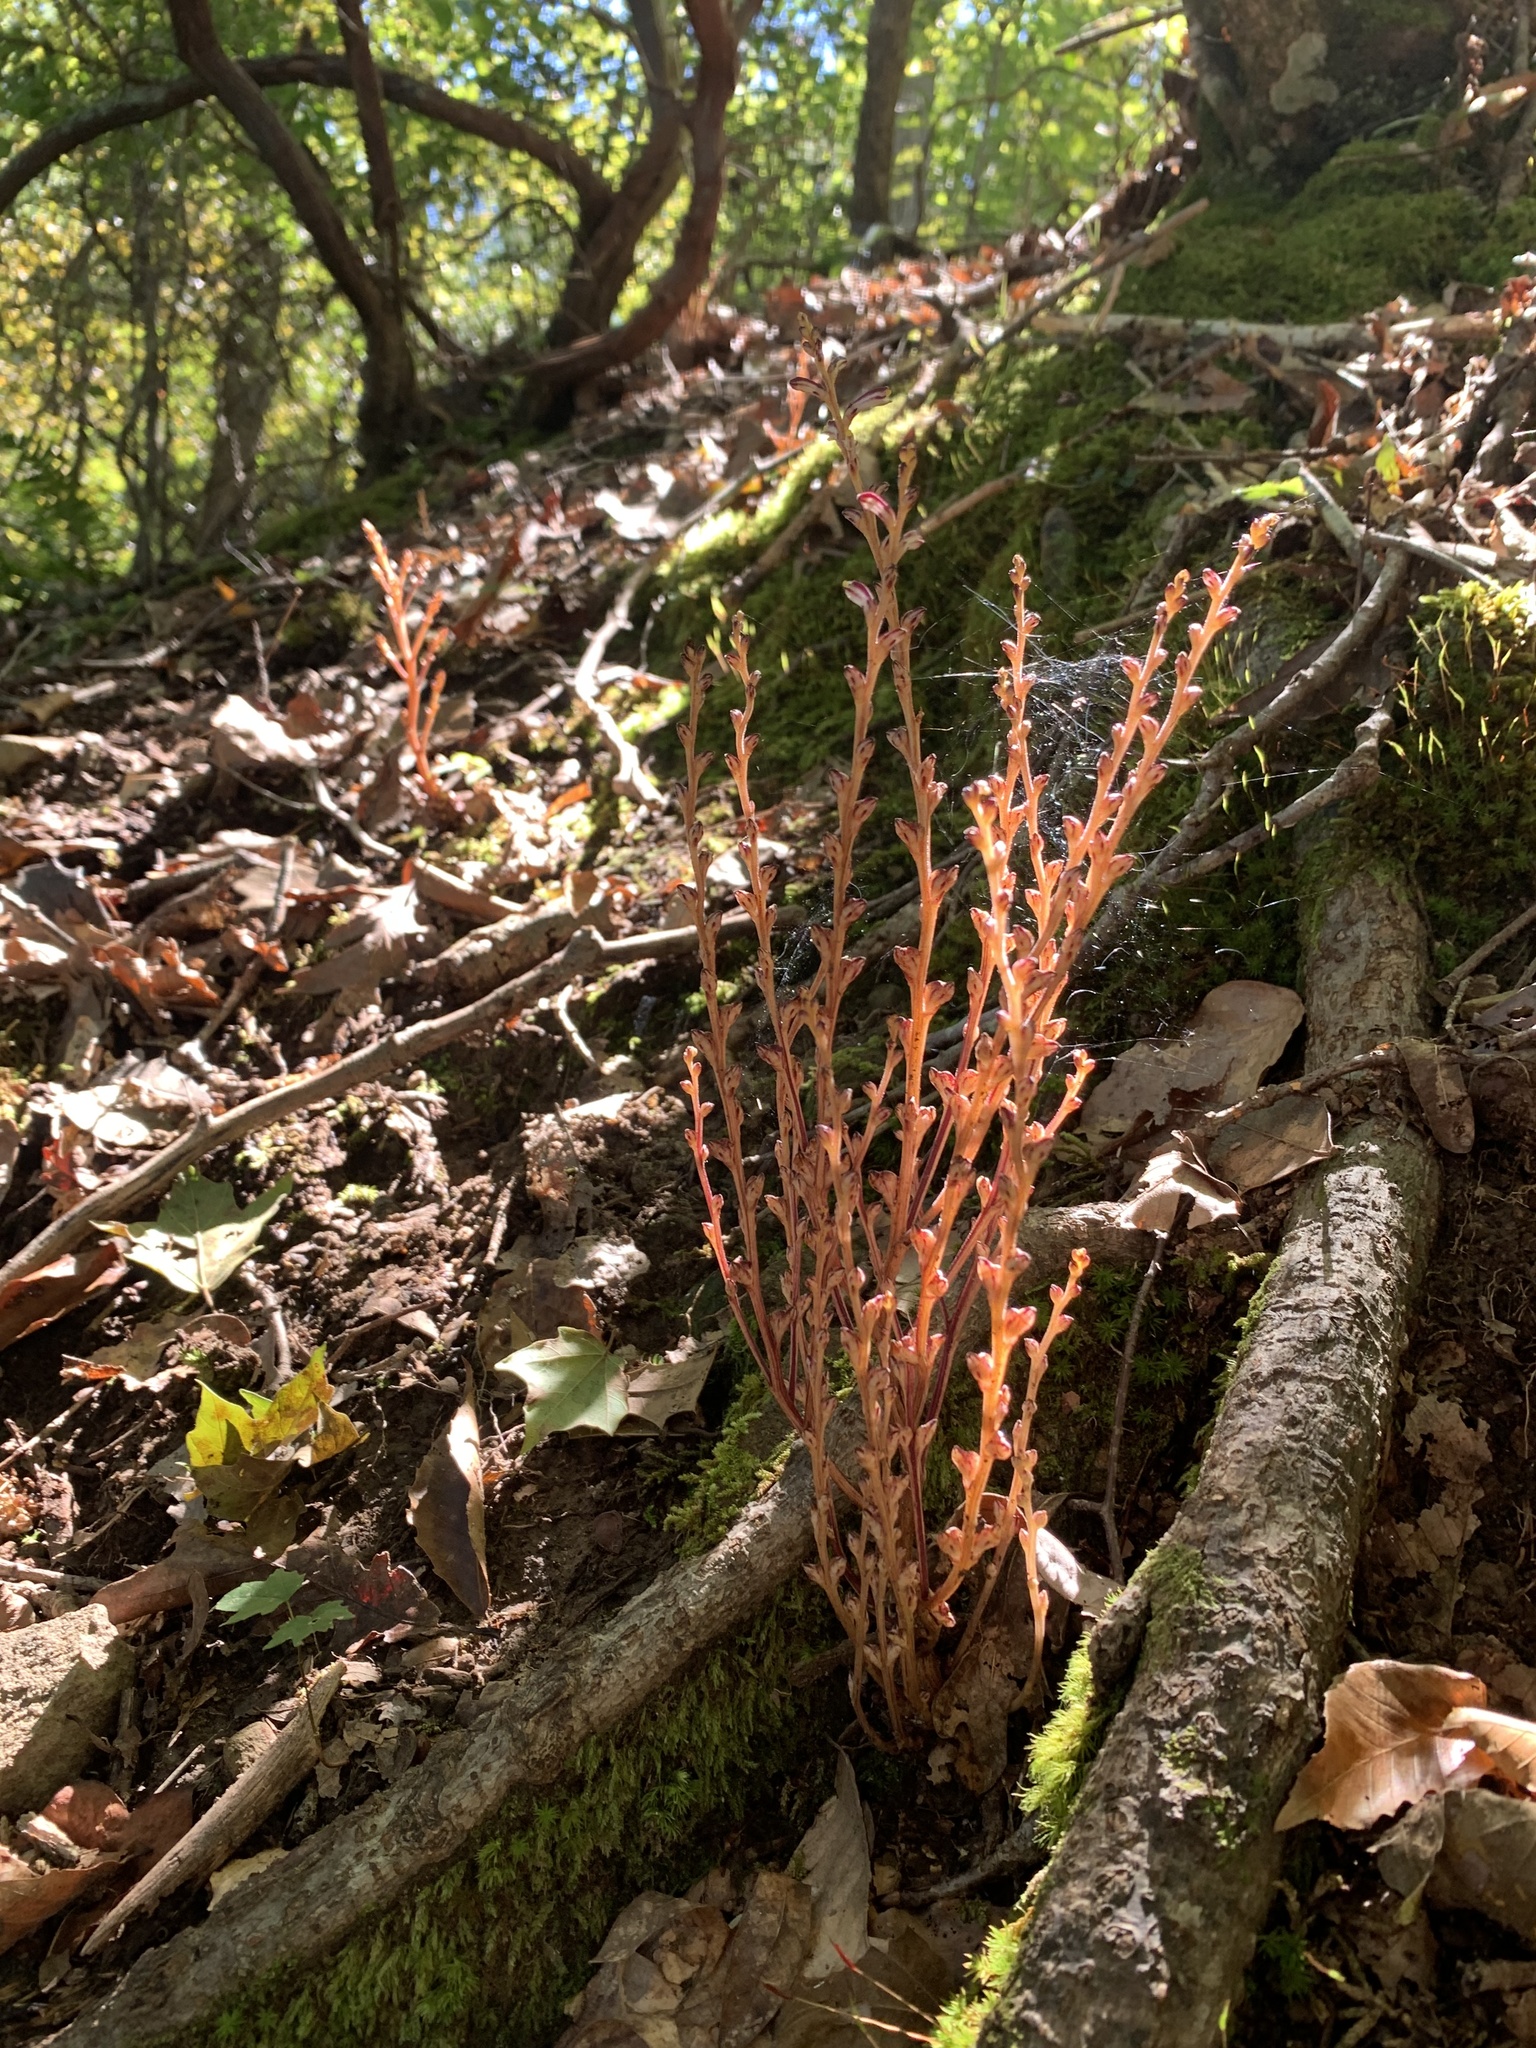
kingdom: Plantae
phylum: Tracheophyta
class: Magnoliopsida
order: Lamiales
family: Orobanchaceae
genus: Epifagus
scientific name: Epifagus virginiana
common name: Beechdrops
